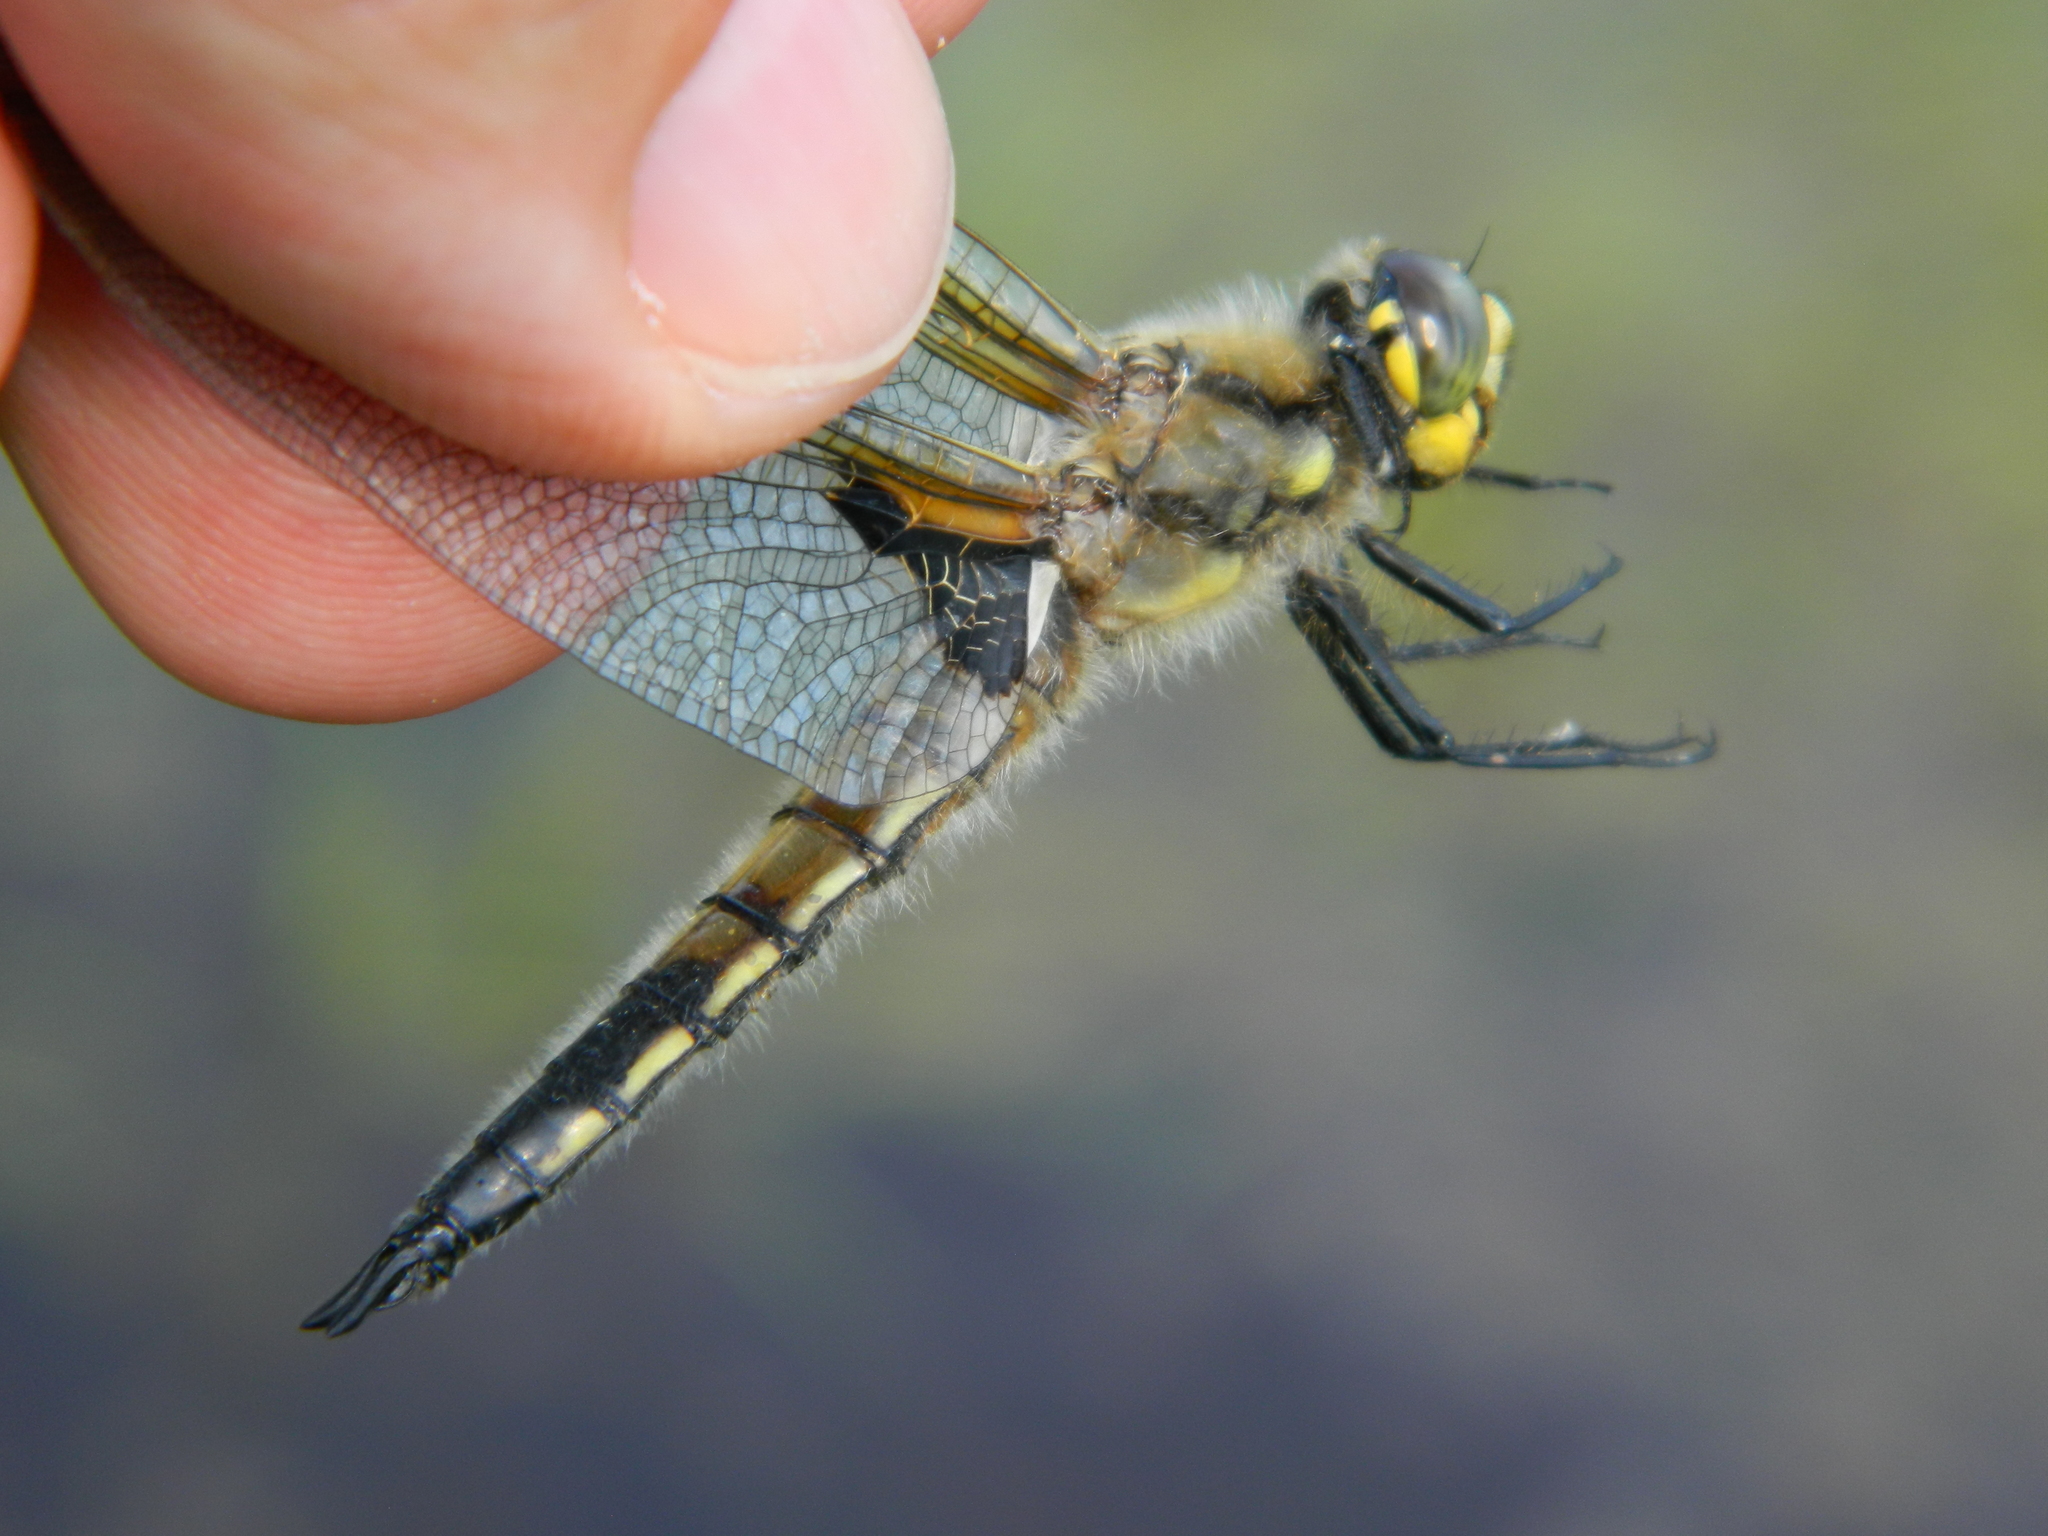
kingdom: Animalia
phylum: Arthropoda
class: Insecta
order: Odonata
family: Libellulidae
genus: Libellula
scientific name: Libellula quadrimaculata
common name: Four-spotted chaser
